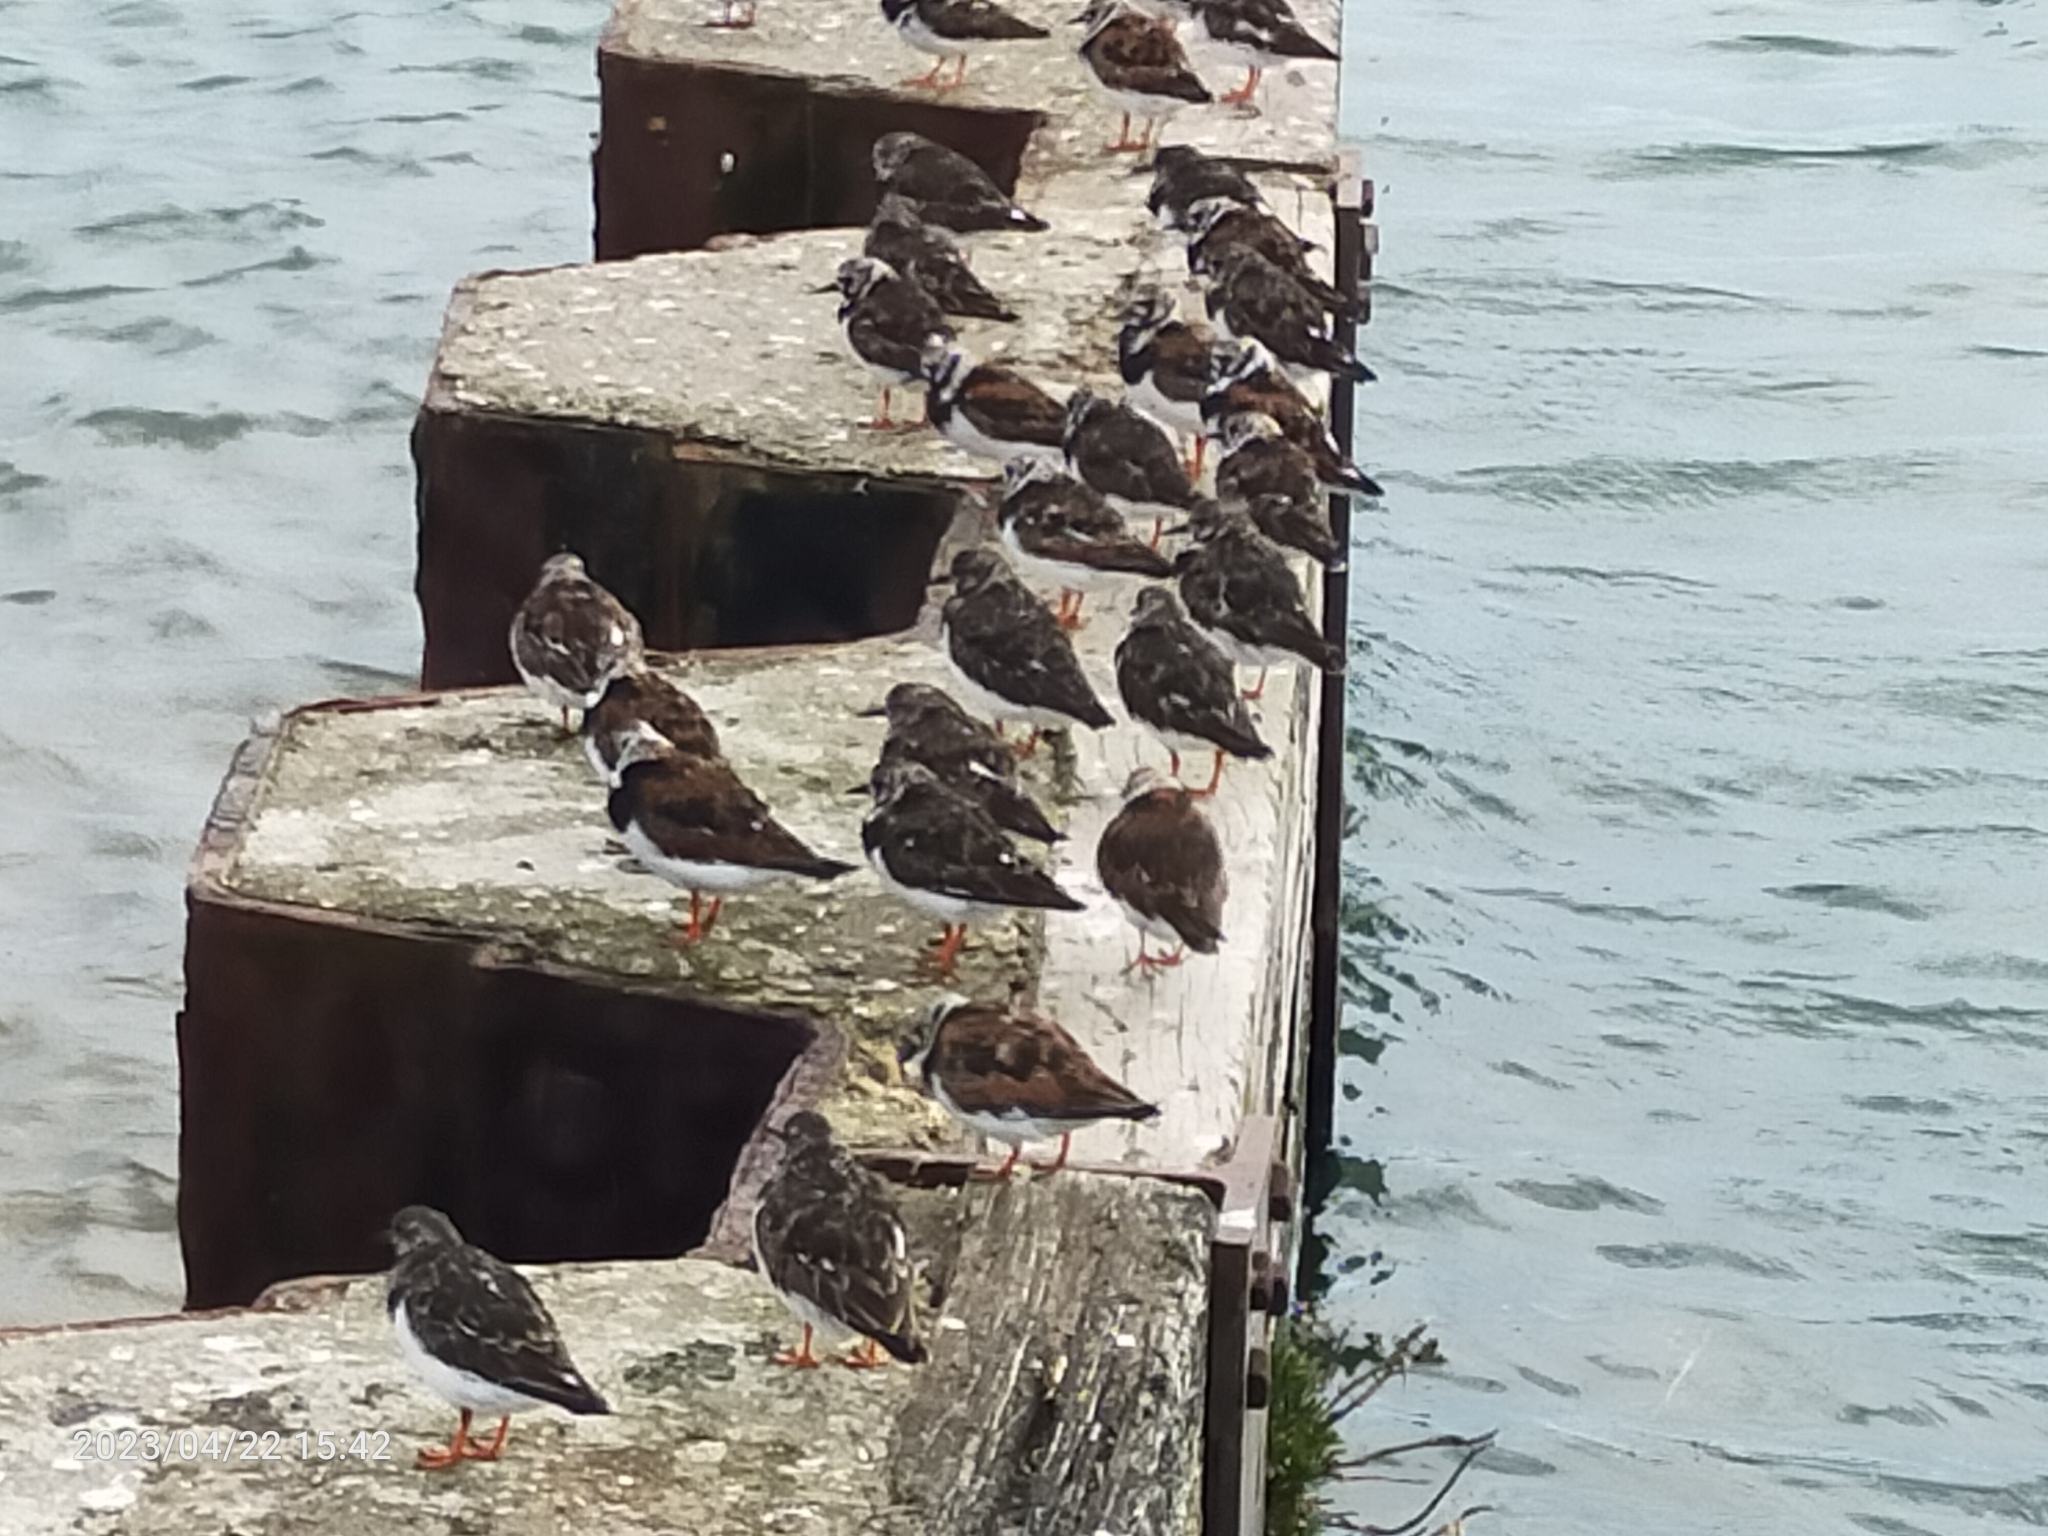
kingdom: Animalia
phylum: Chordata
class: Aves
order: Charadriiformes
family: Scolopacidae
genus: Arenaria
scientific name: Arenaria interpres
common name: Ruddy turnstone
